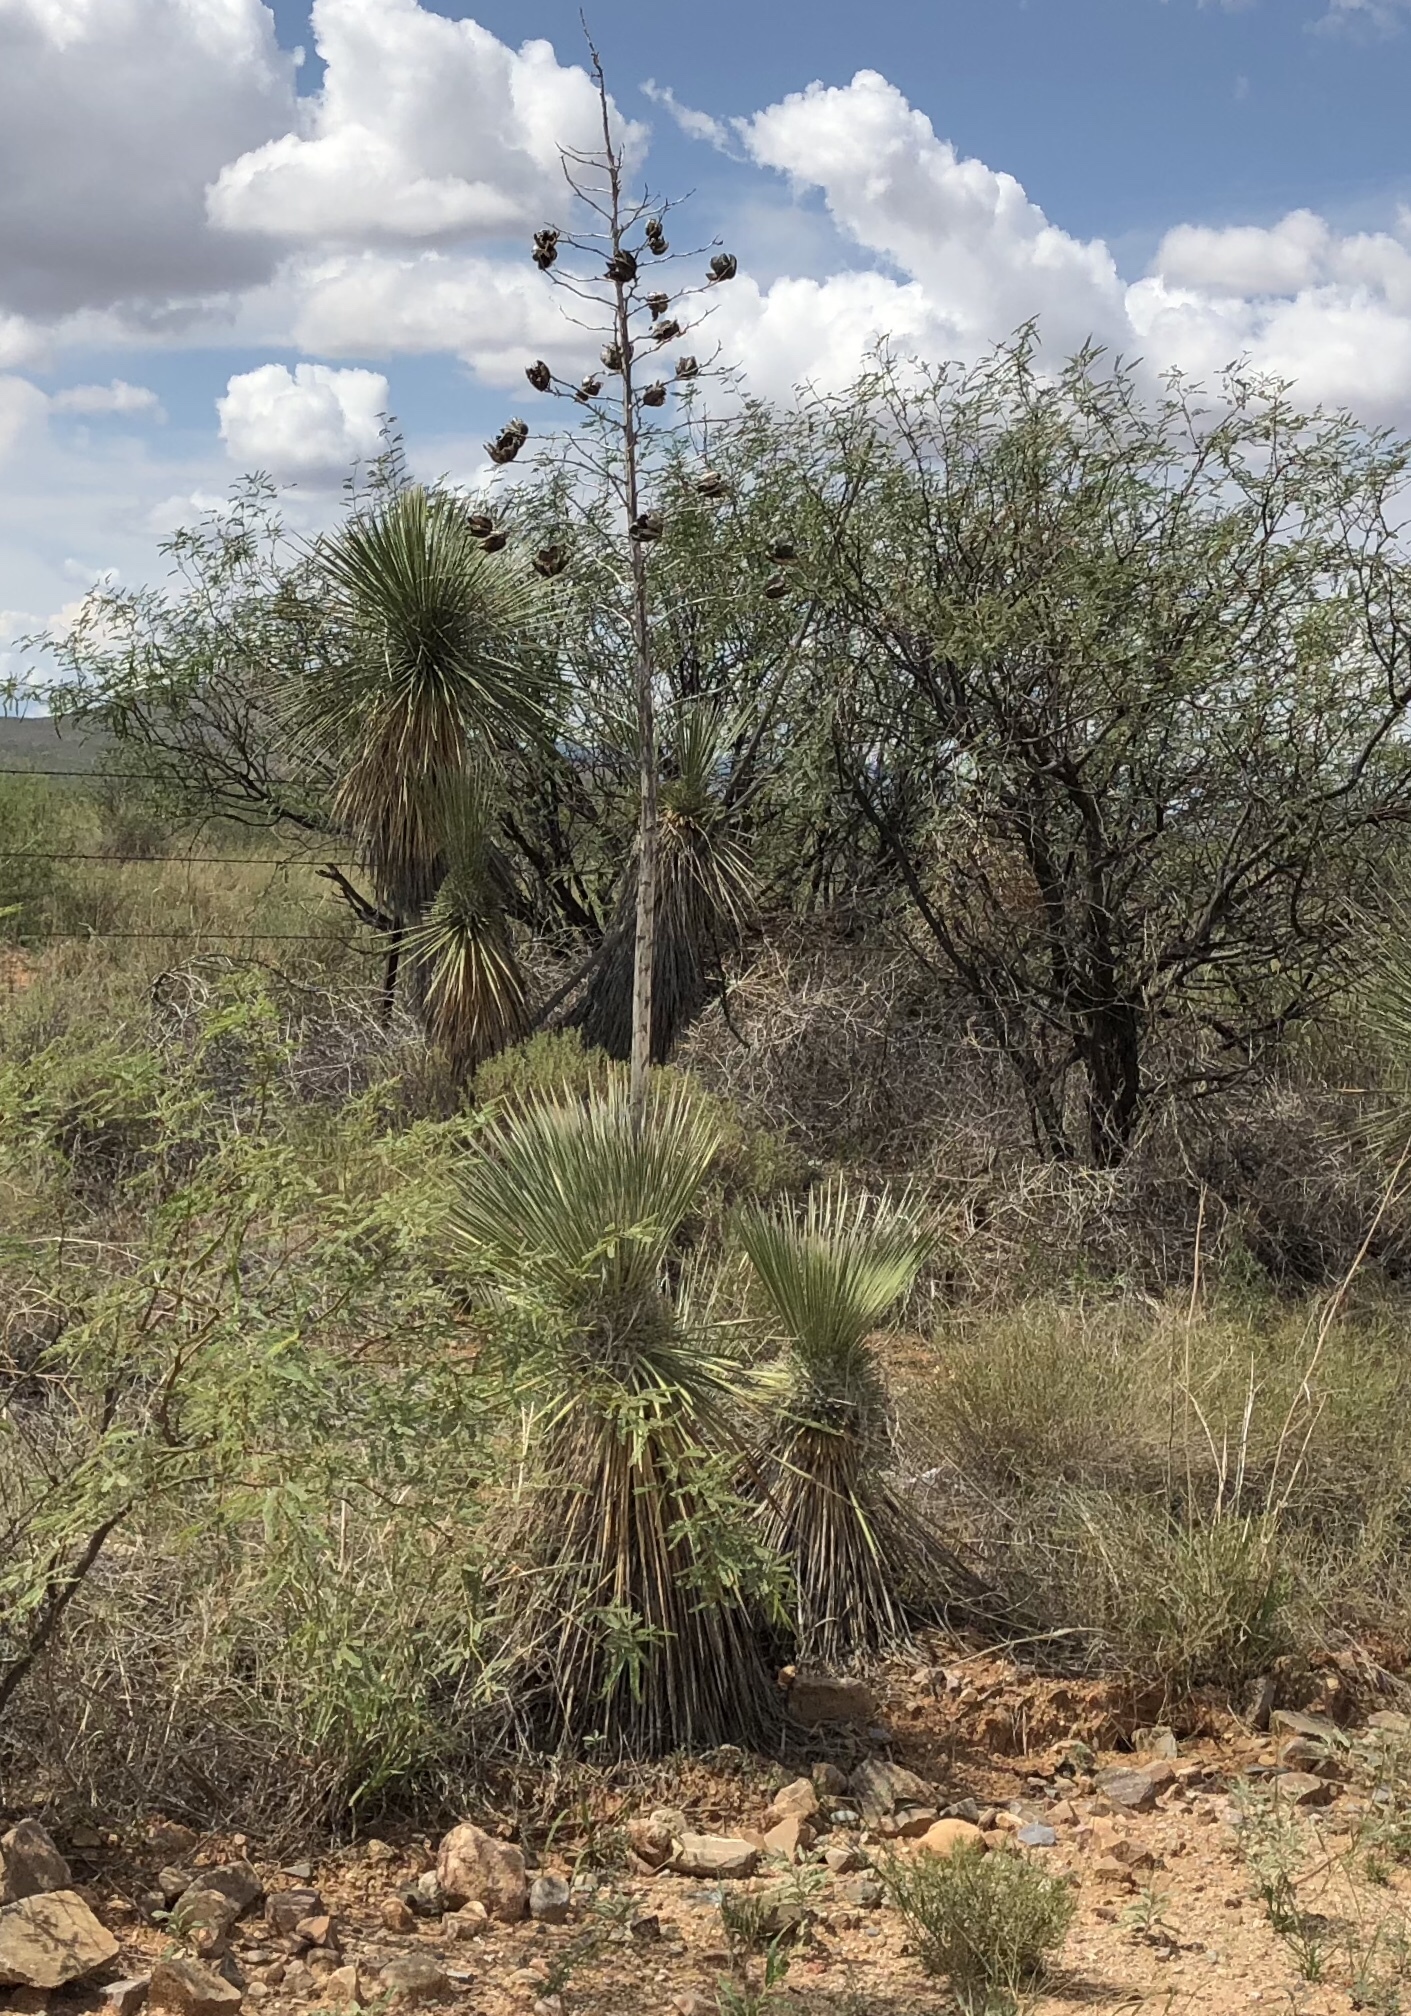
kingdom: Plantae
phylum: Tracheophyta
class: Liliopsida
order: Asparagales
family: Asparagaceae
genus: Yucca
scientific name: Yucca elata
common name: Palmella
